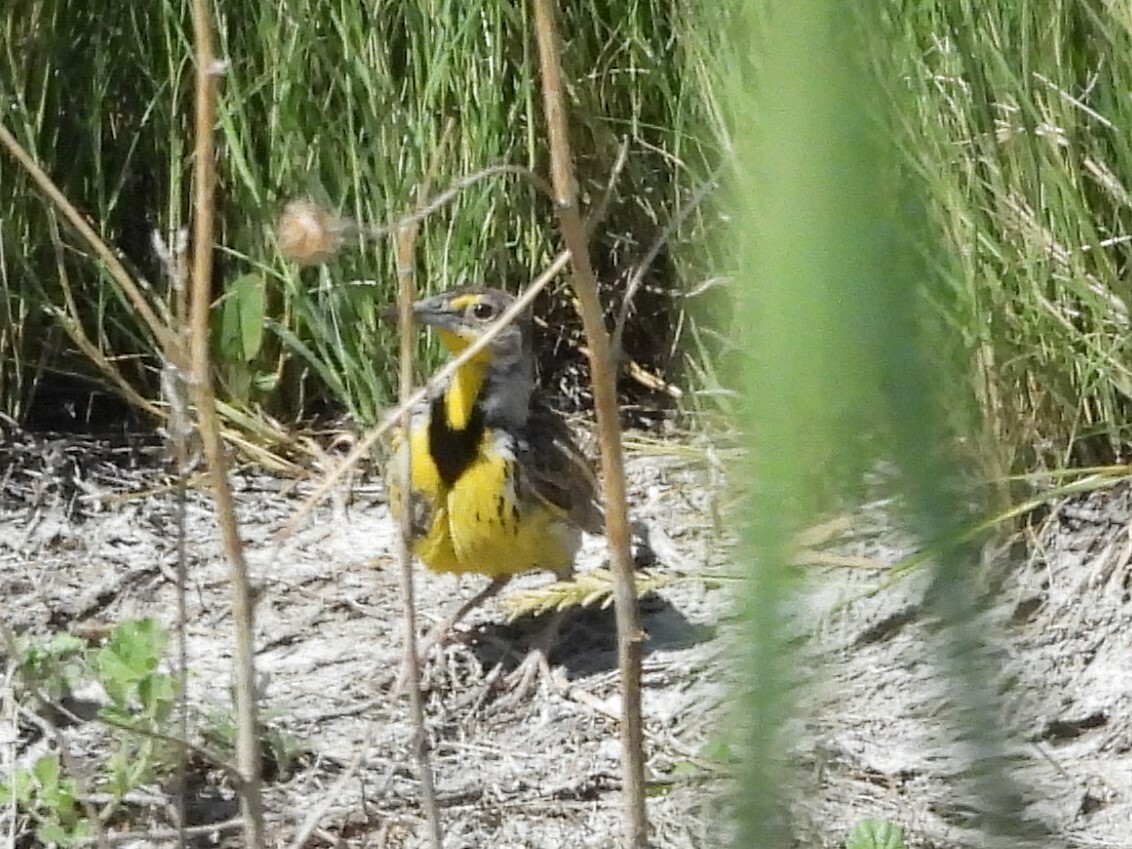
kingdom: Animalia
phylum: Chordata
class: Aves
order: Passeriformes
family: Icteridae
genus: Sturnella
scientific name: Sturnella neglecta
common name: Western meadowlark
